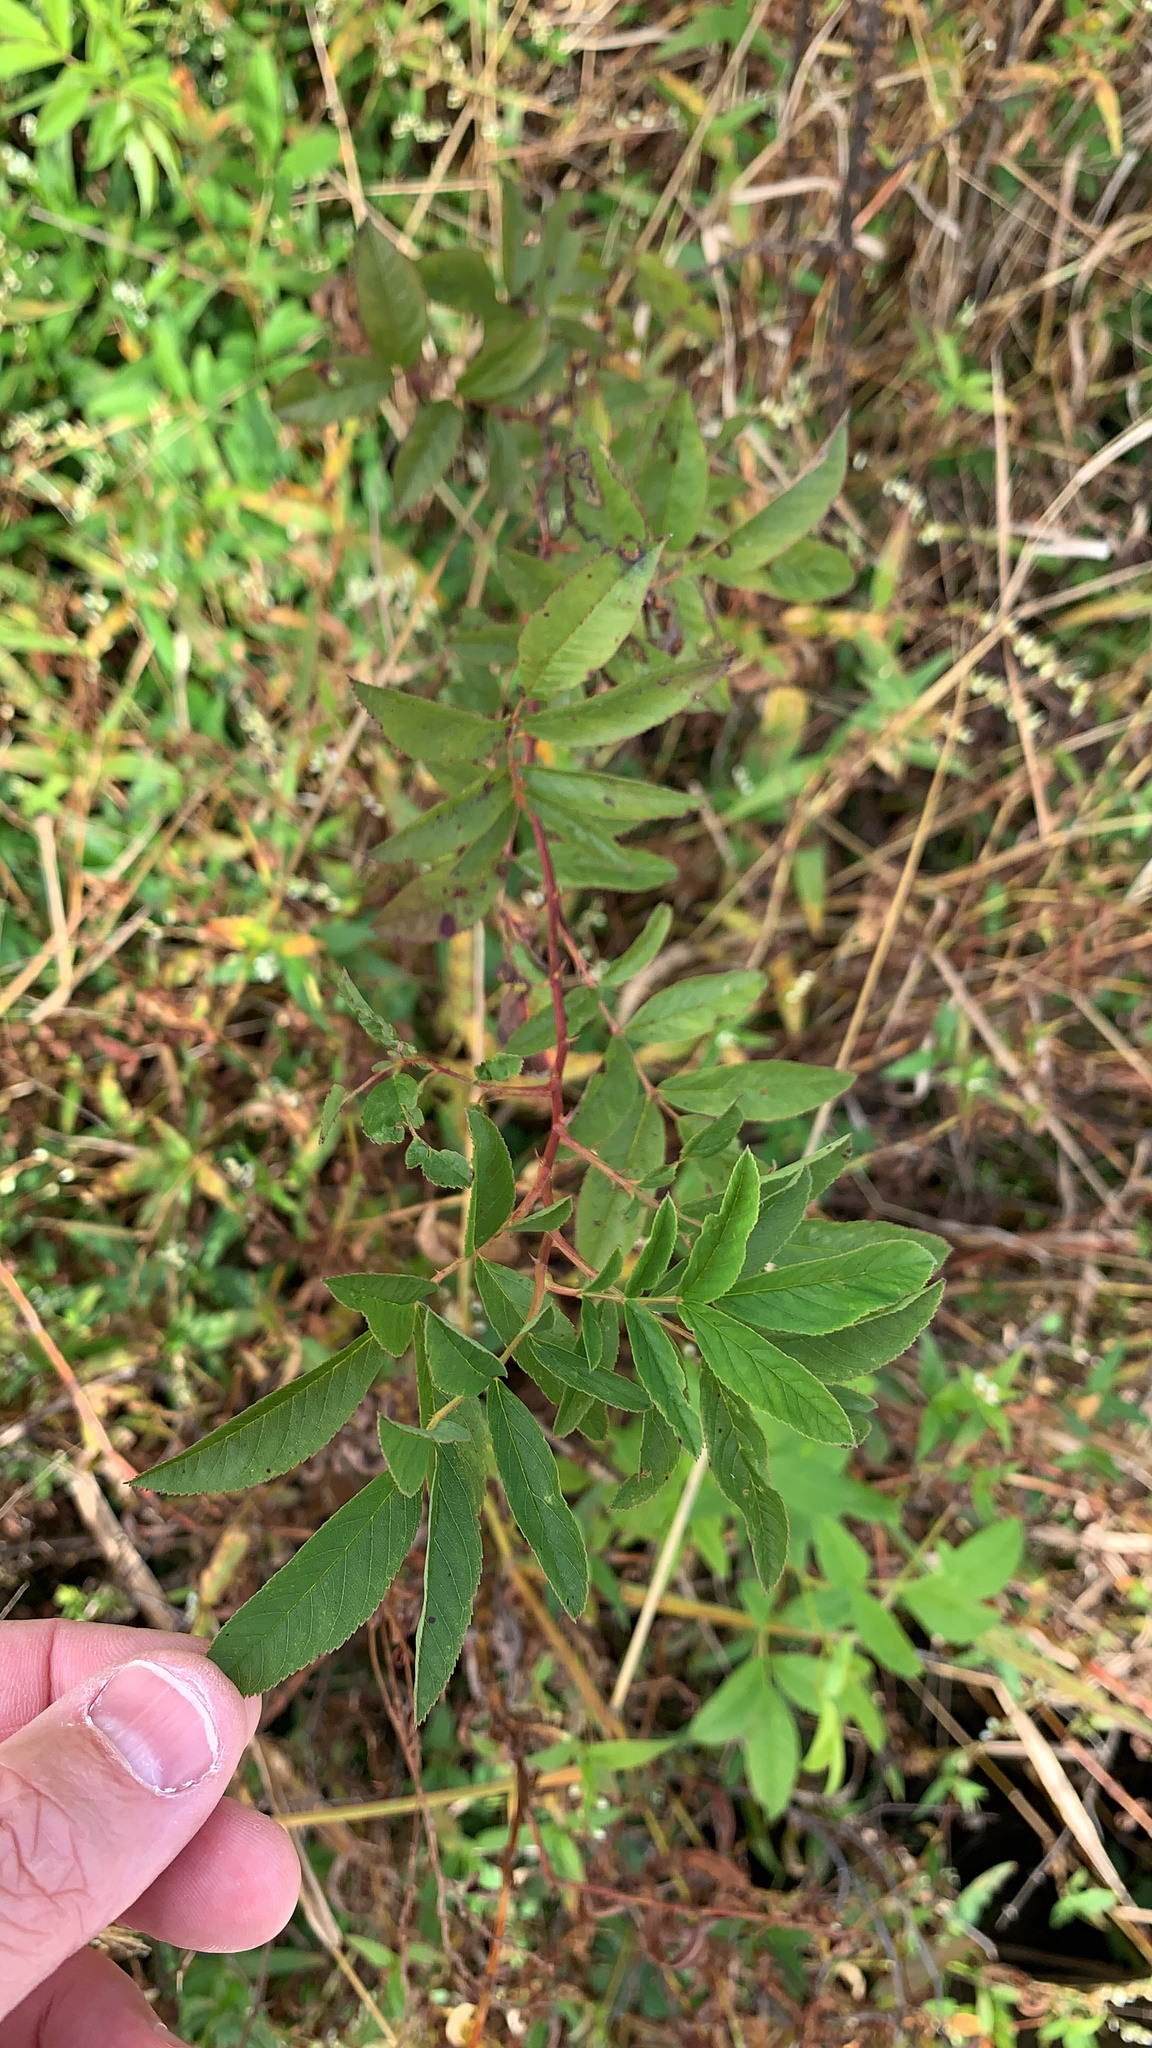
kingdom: Plantae
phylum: Tracheophyta
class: Magnoliopsida
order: Rosales
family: Rosaceae
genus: Rosa
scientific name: Rosa palustris
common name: Swamp rose
